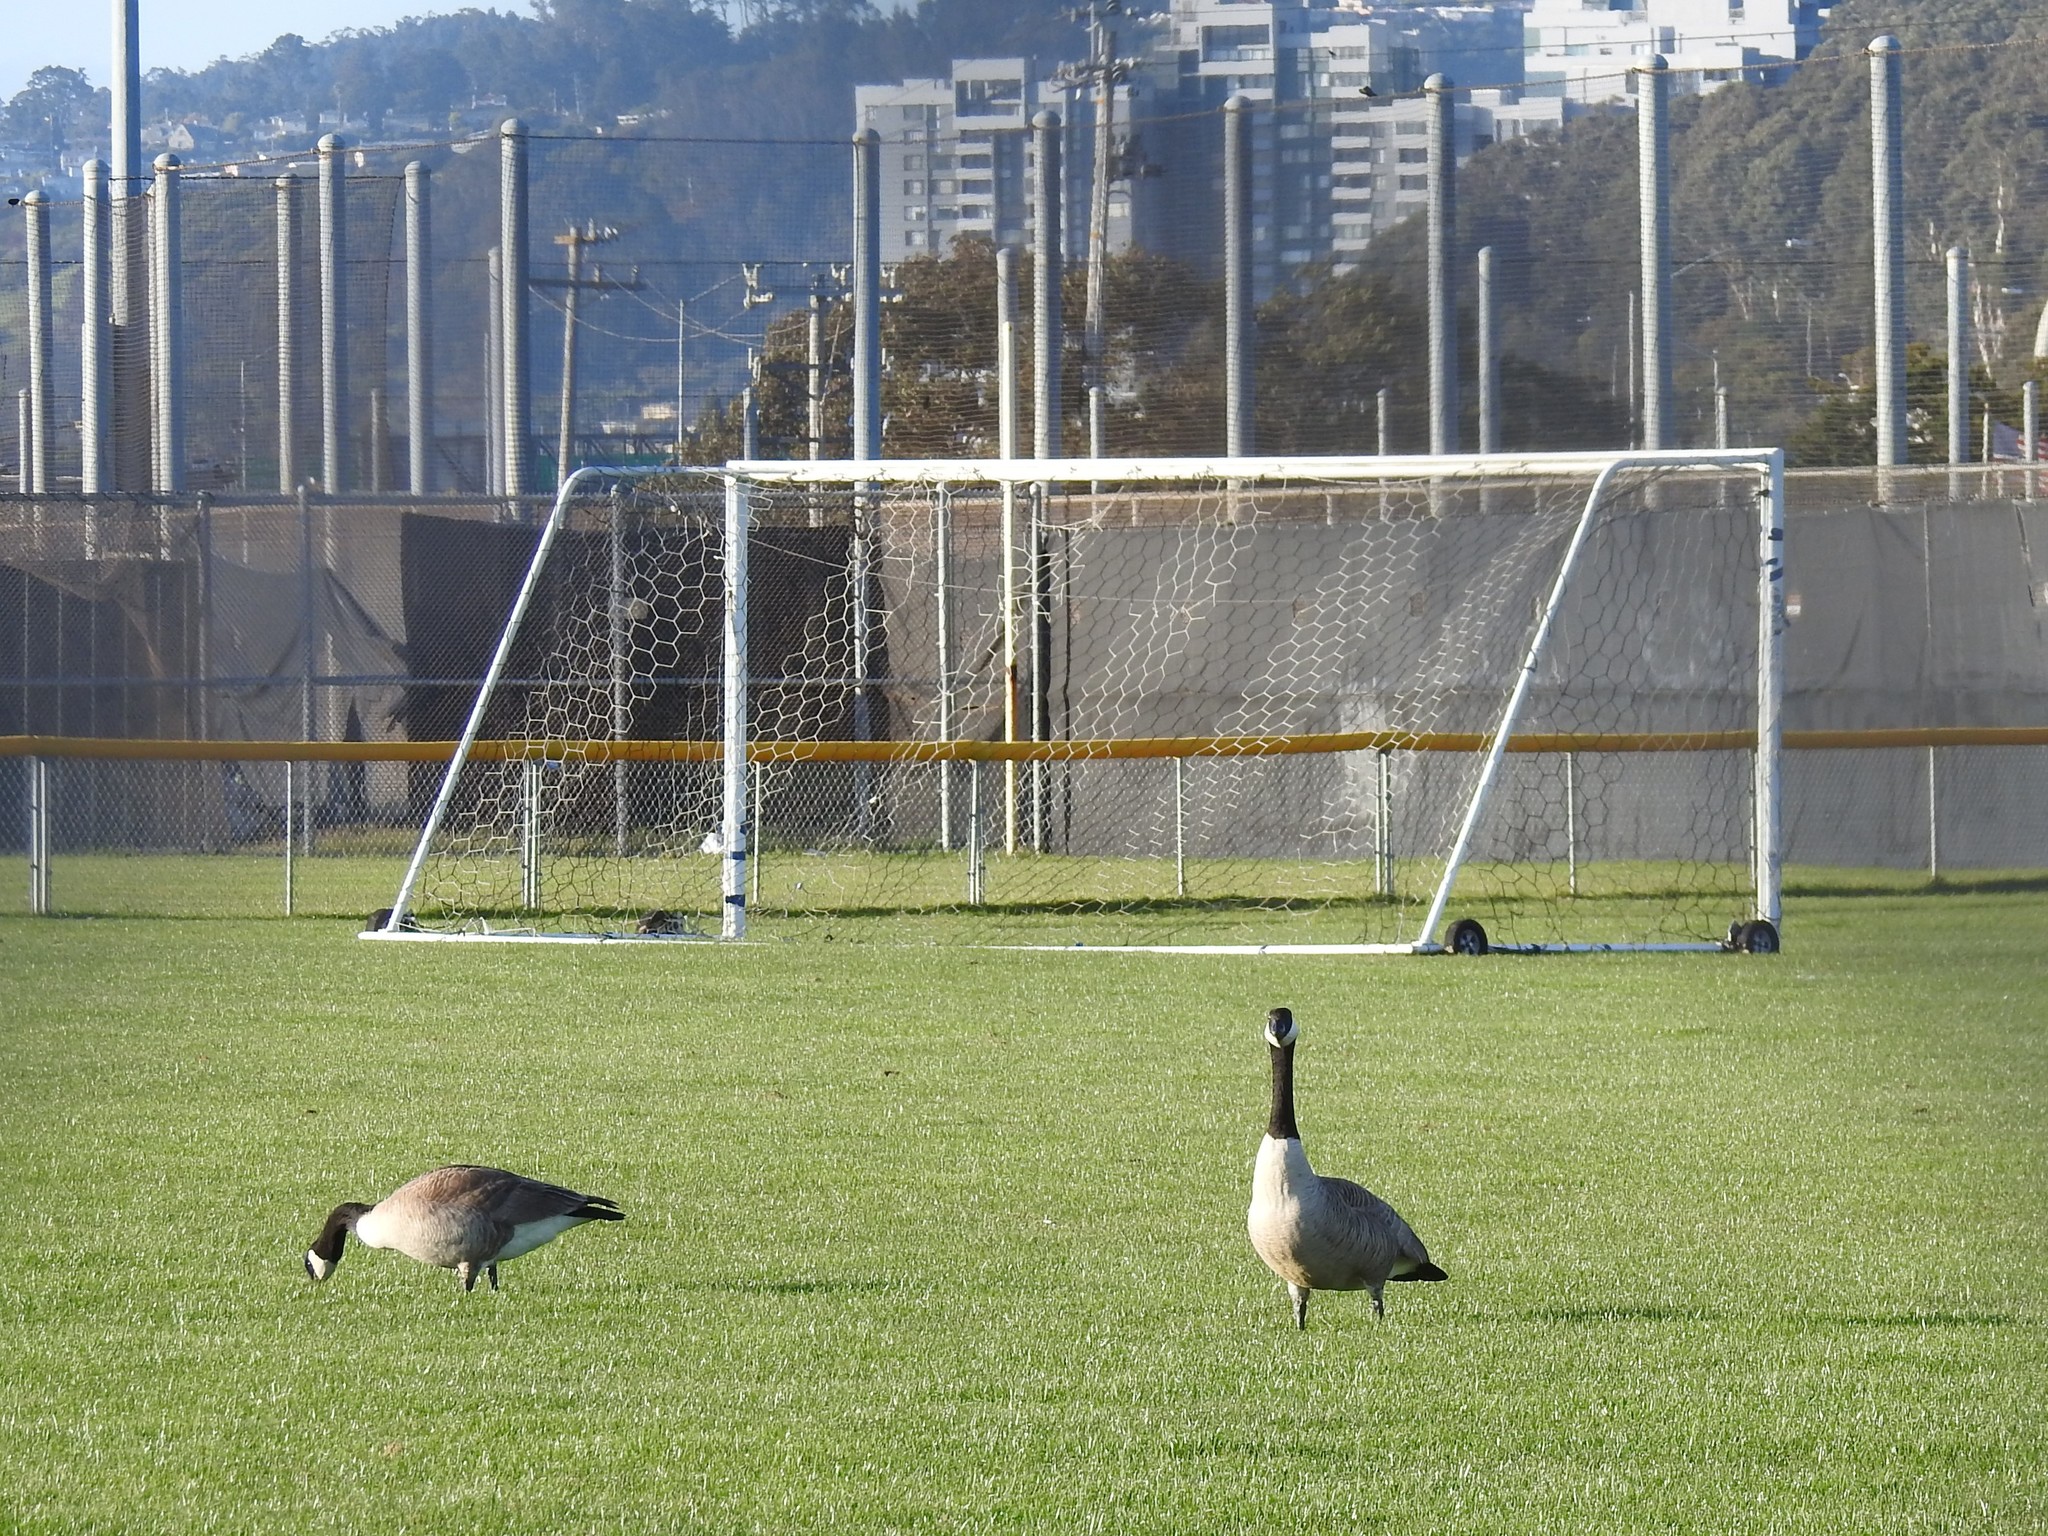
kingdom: Animalia
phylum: Chordata
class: Aves
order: Anseriformes
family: Anatidae
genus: Branta
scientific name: Branta canadensis
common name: Canada goose
